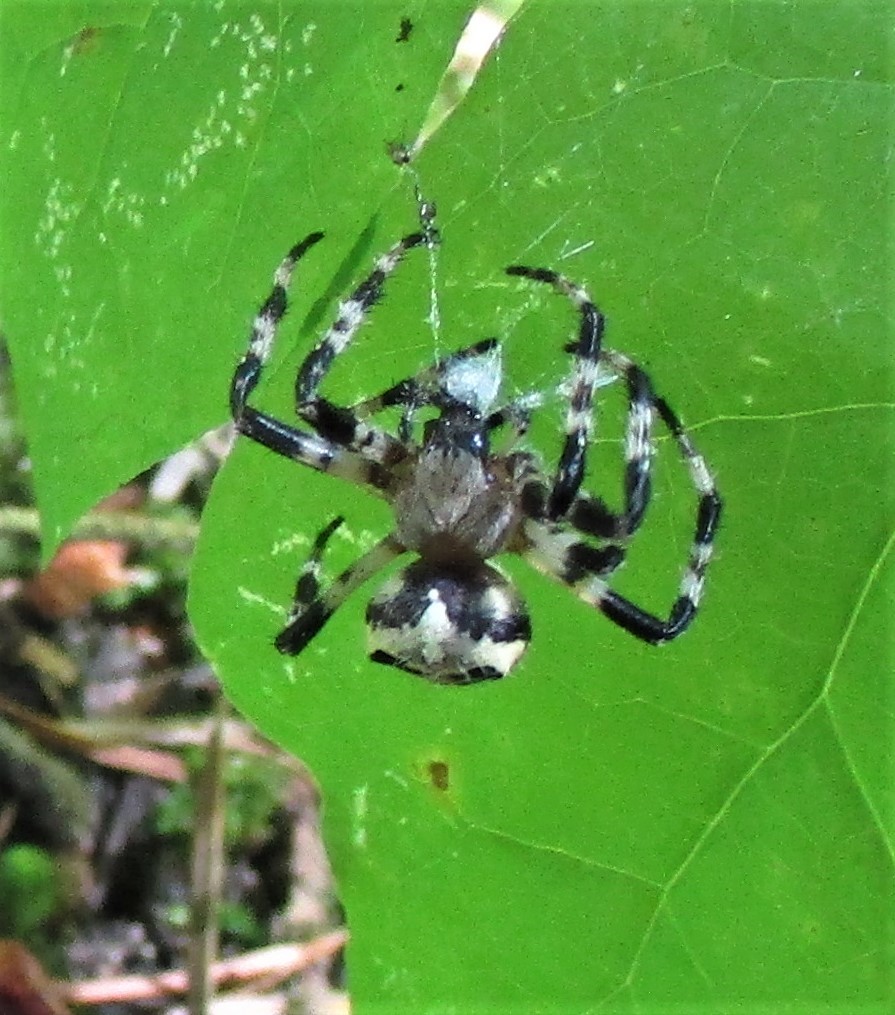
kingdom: Animalia
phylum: Arthropoda
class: Arachnida
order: Araneae
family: Araneidae
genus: Araneus
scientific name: Araneus nordmanni
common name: Nordmann's orbweaver
